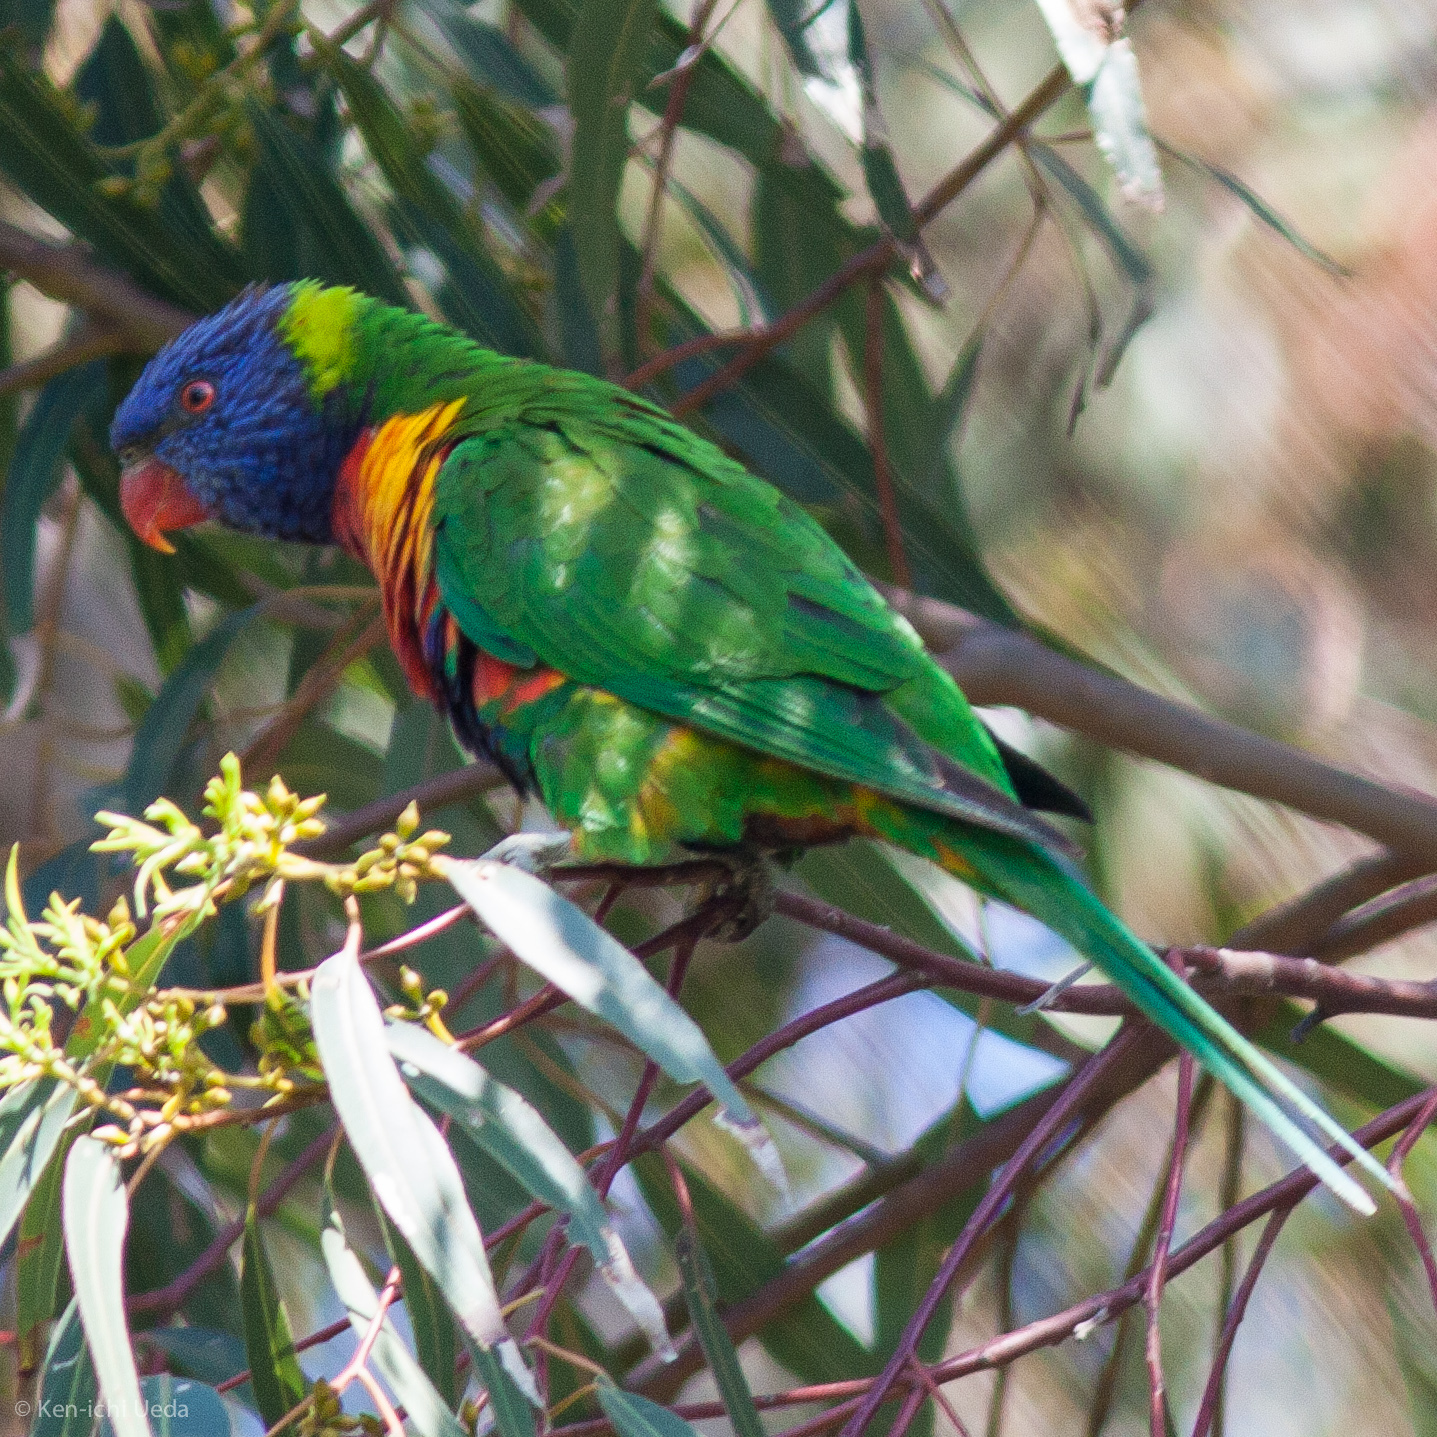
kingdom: Animalia
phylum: Chordata
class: Aves
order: Psittaciformes
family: Psittacidae
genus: Trichoglossus
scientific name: Trichoglossus haematodus
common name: Coconut lorikeet
